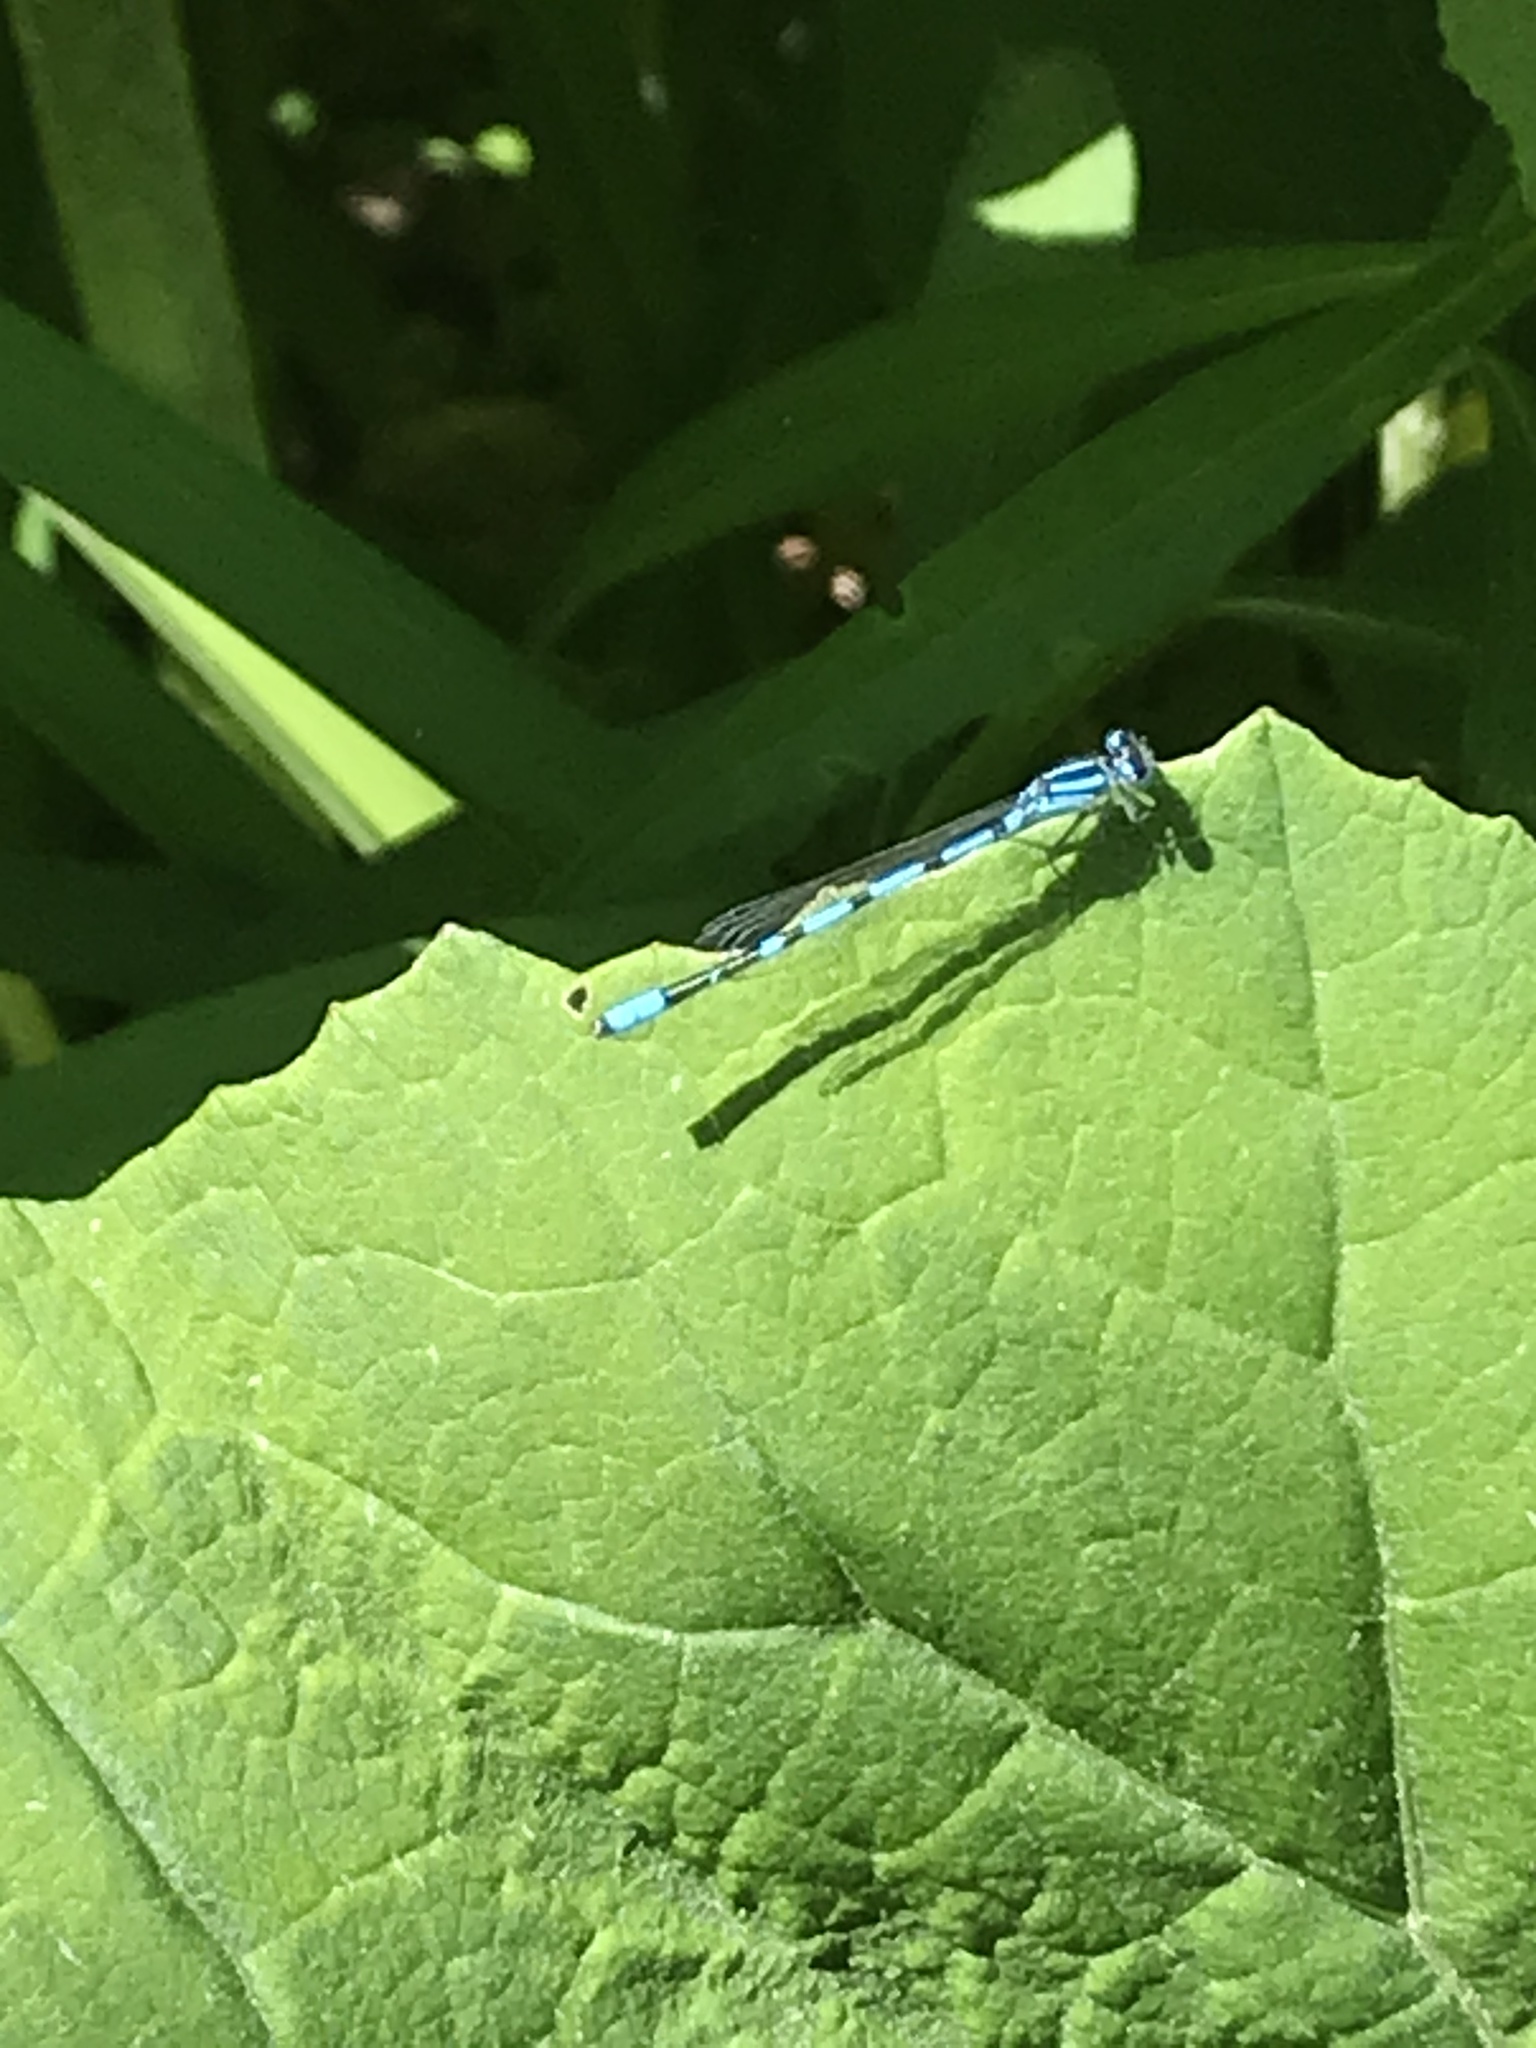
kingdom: Animalia
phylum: Arthropoda
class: Insecta
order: Odonata
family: Coenagrionidae
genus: Enallagma
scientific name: Enallagma ebrium
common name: Marsh bluet
